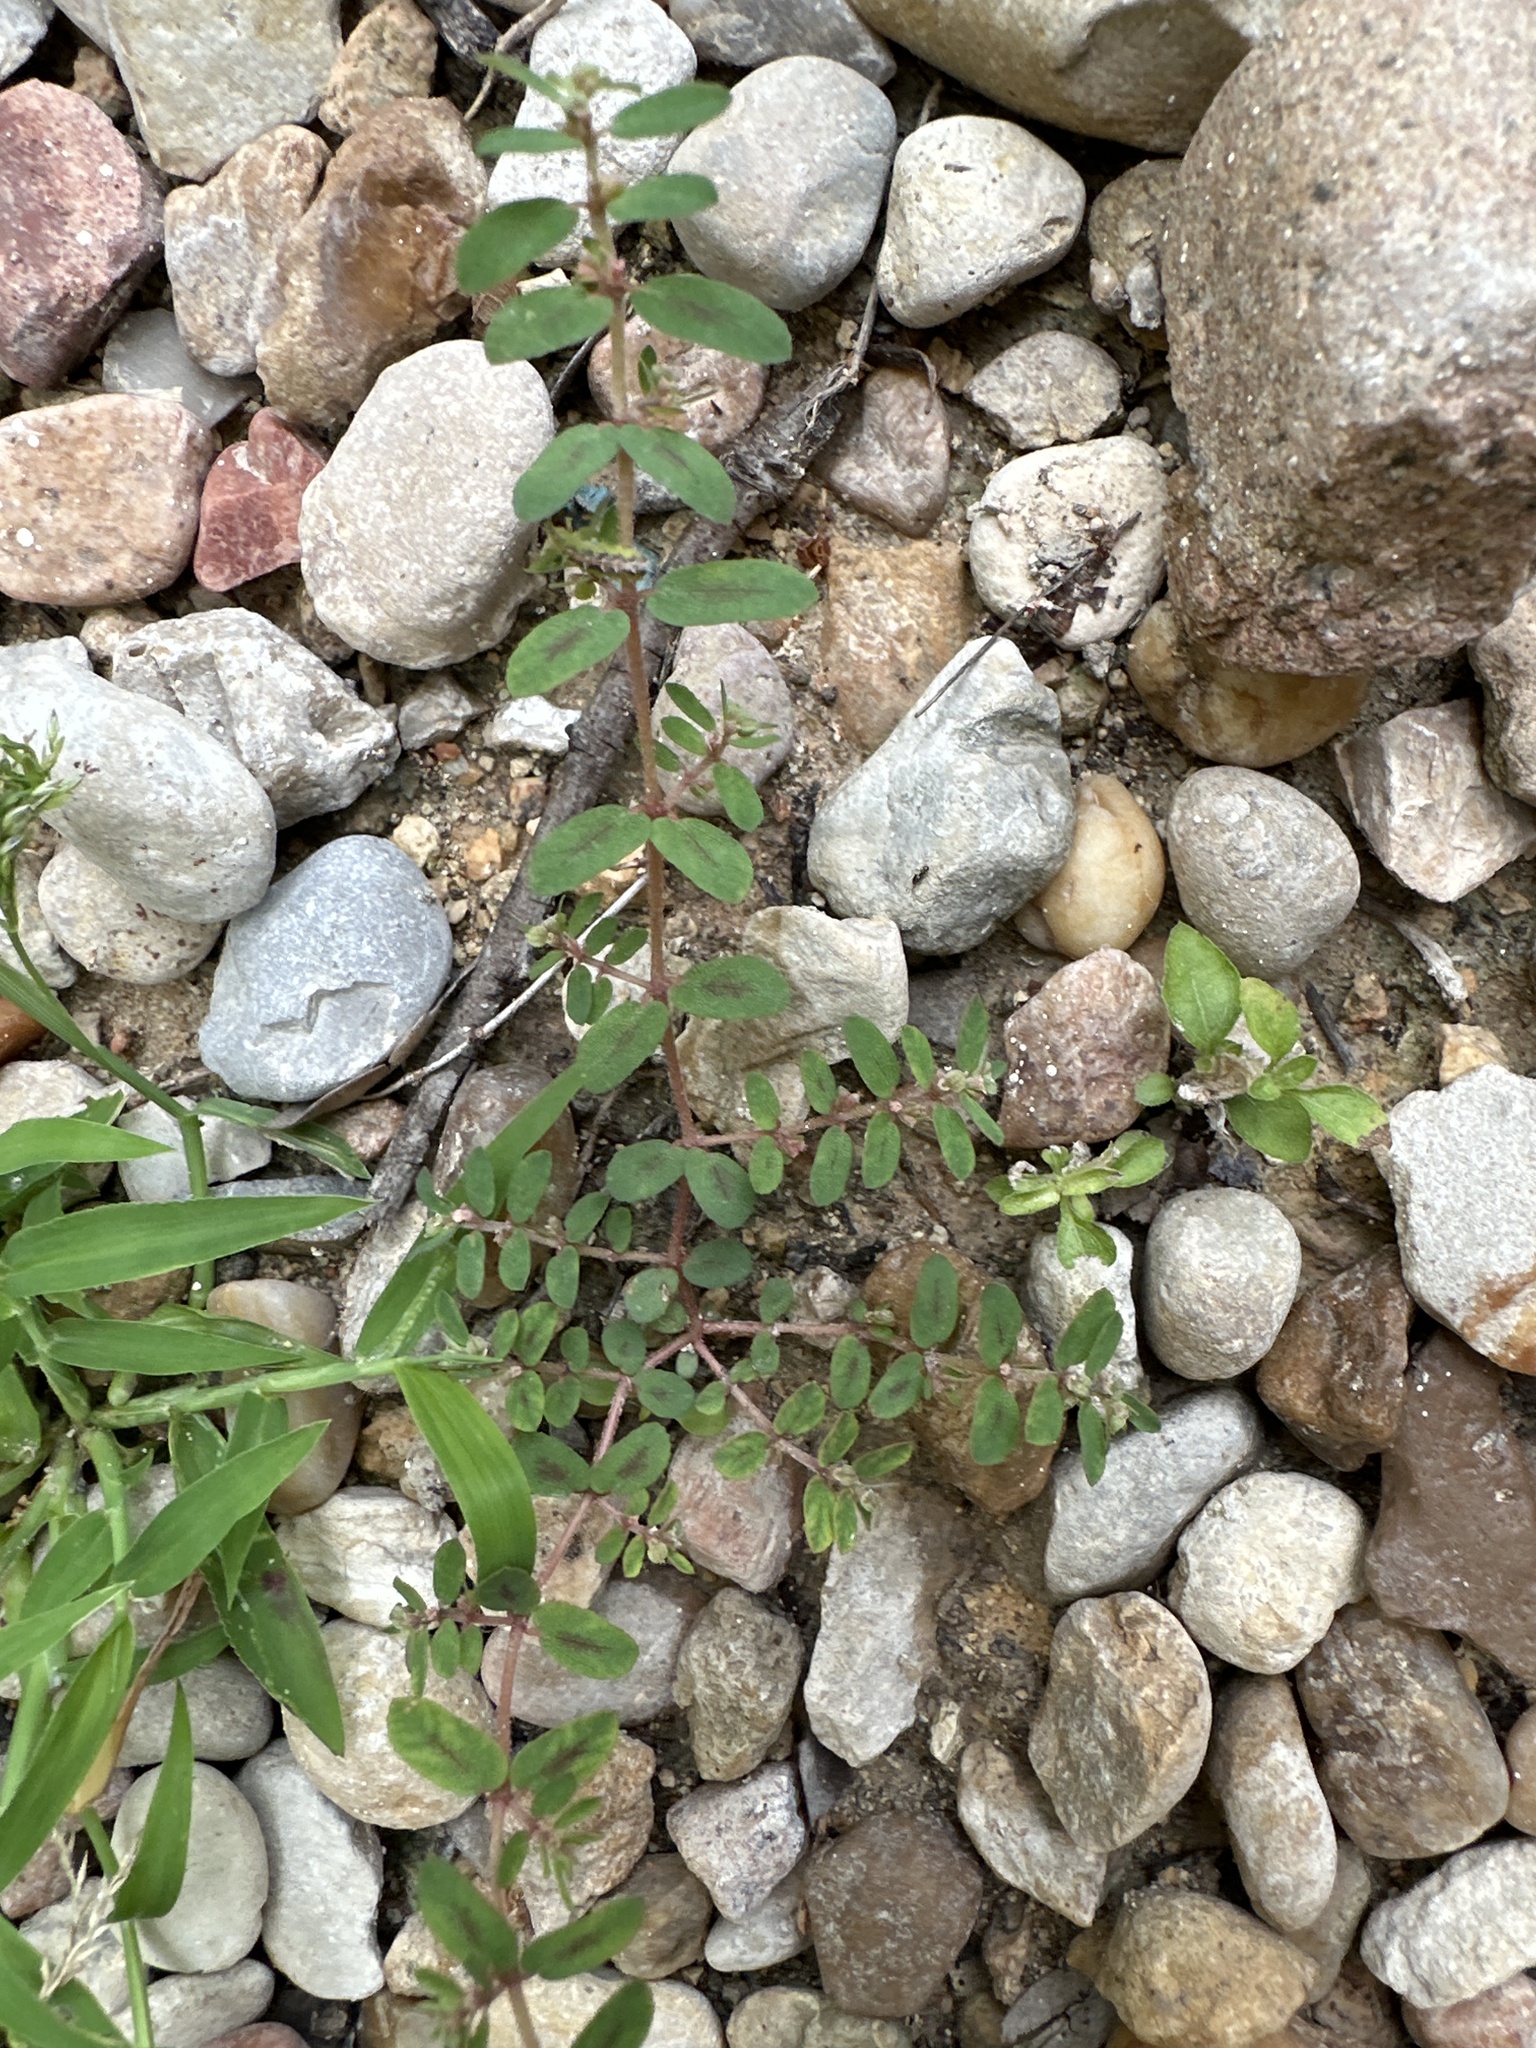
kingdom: Plantae
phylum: Tracheophyta
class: Magnoliopsida
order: Malpighiales
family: Euphorbiaceae
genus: Euphorbia
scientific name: Euphorbia maculata
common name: Spotted spurge
